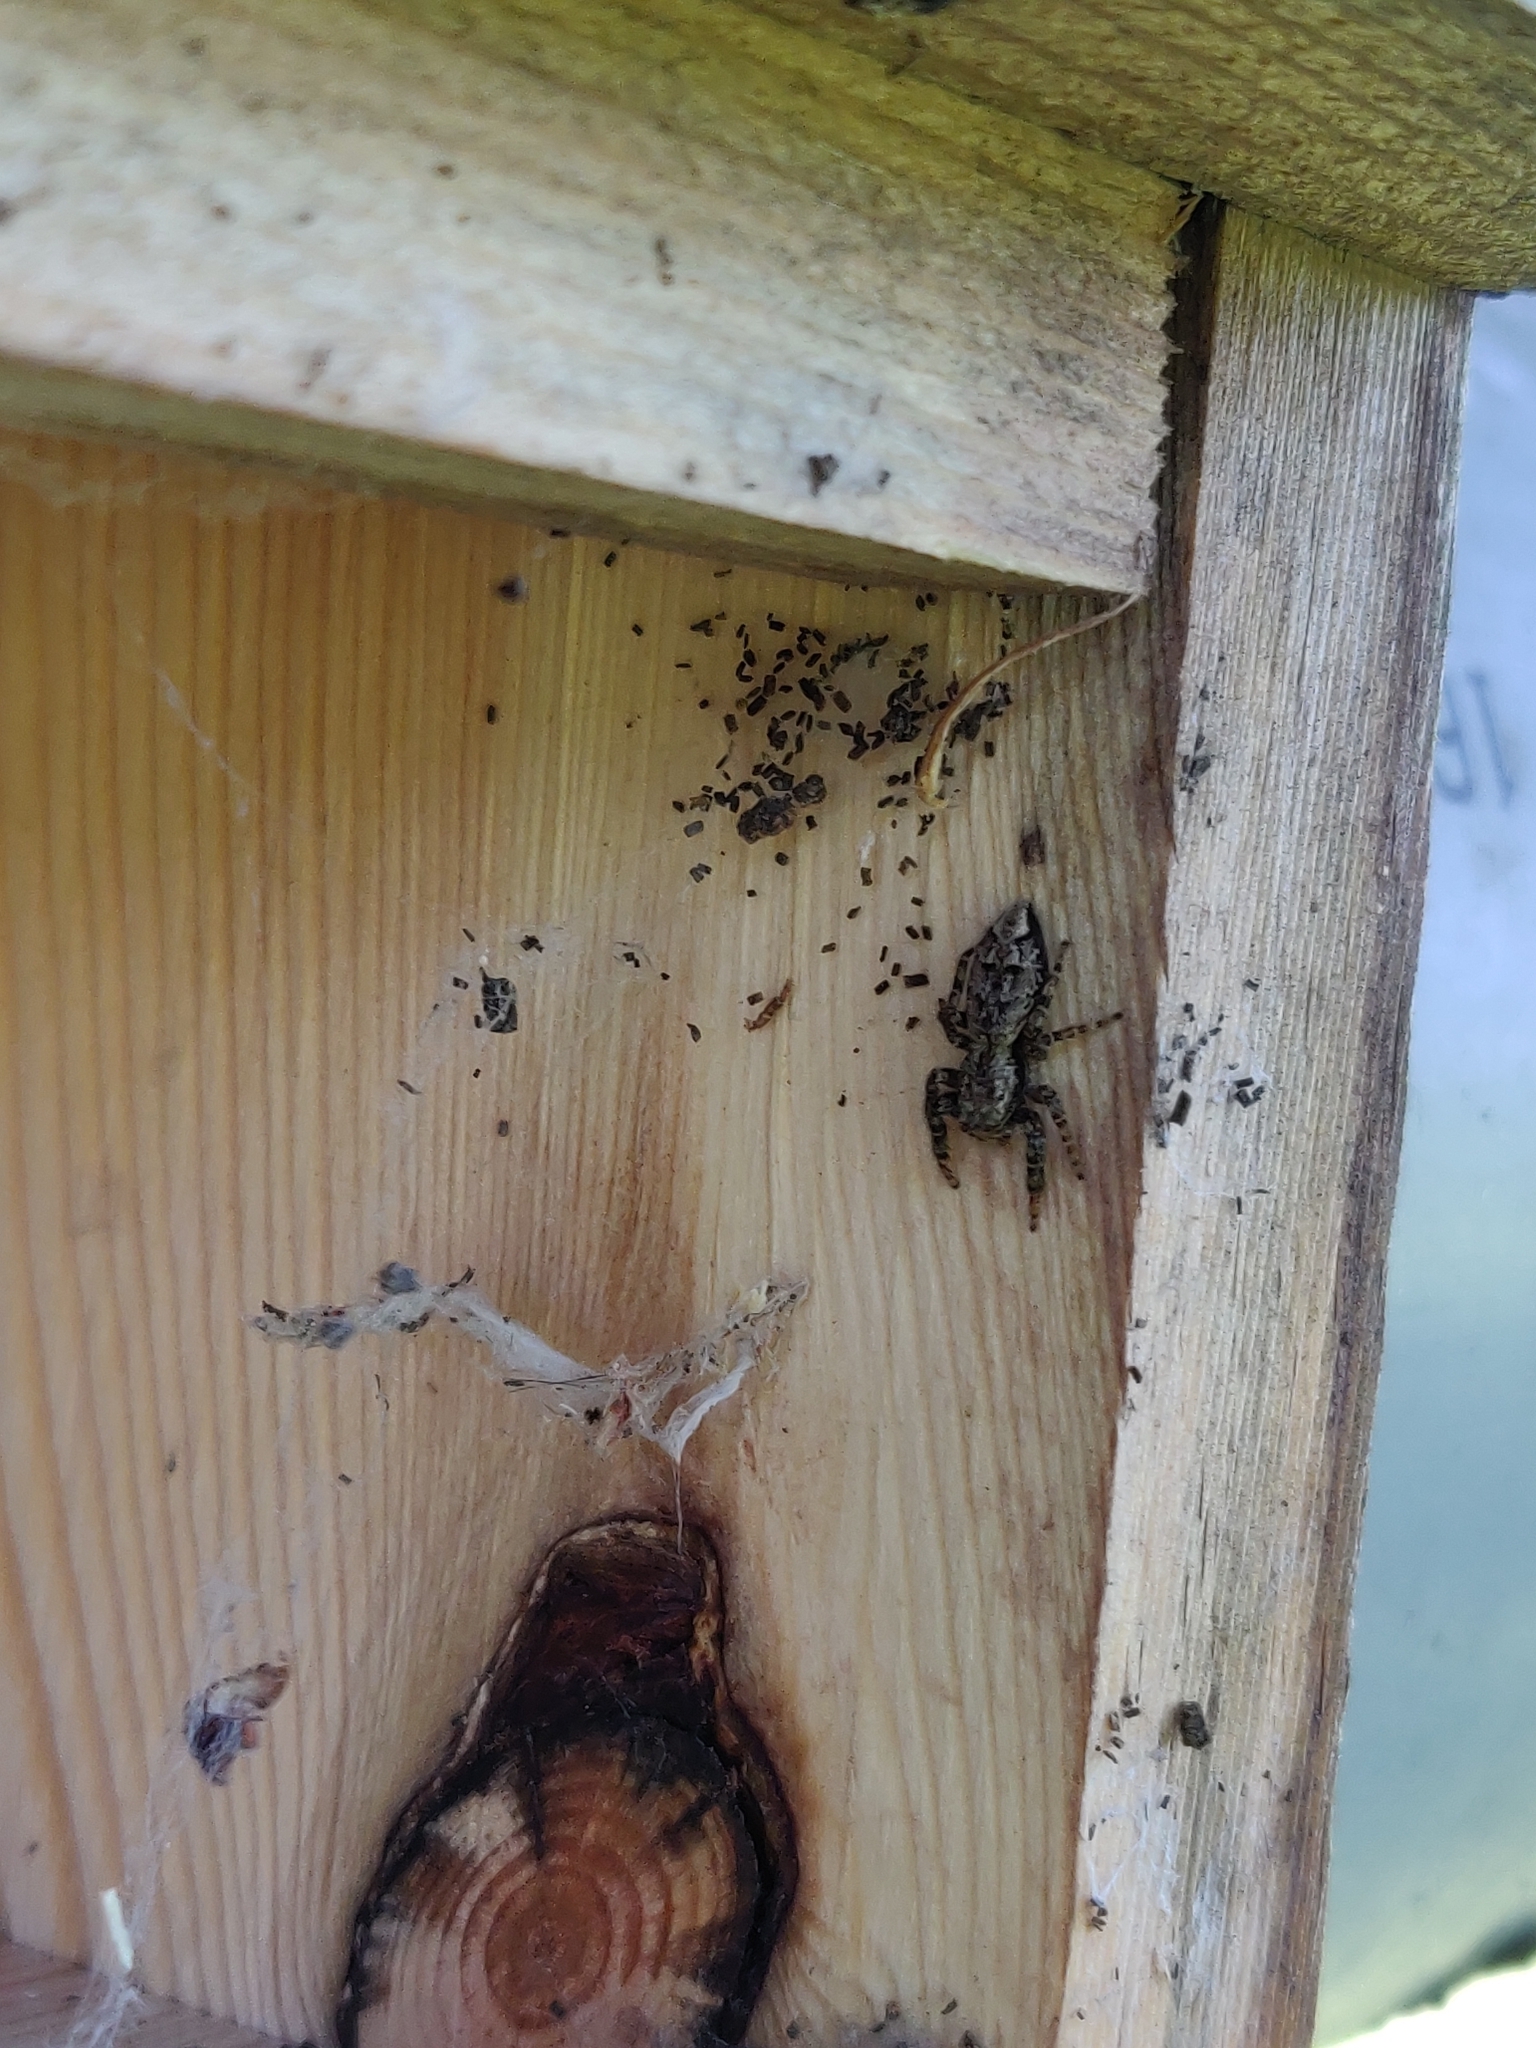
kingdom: Animalia
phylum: Arthropoda
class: Arachnida
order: Araneae
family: Salticidae
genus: Marpissa
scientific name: Marpissa muscosa
